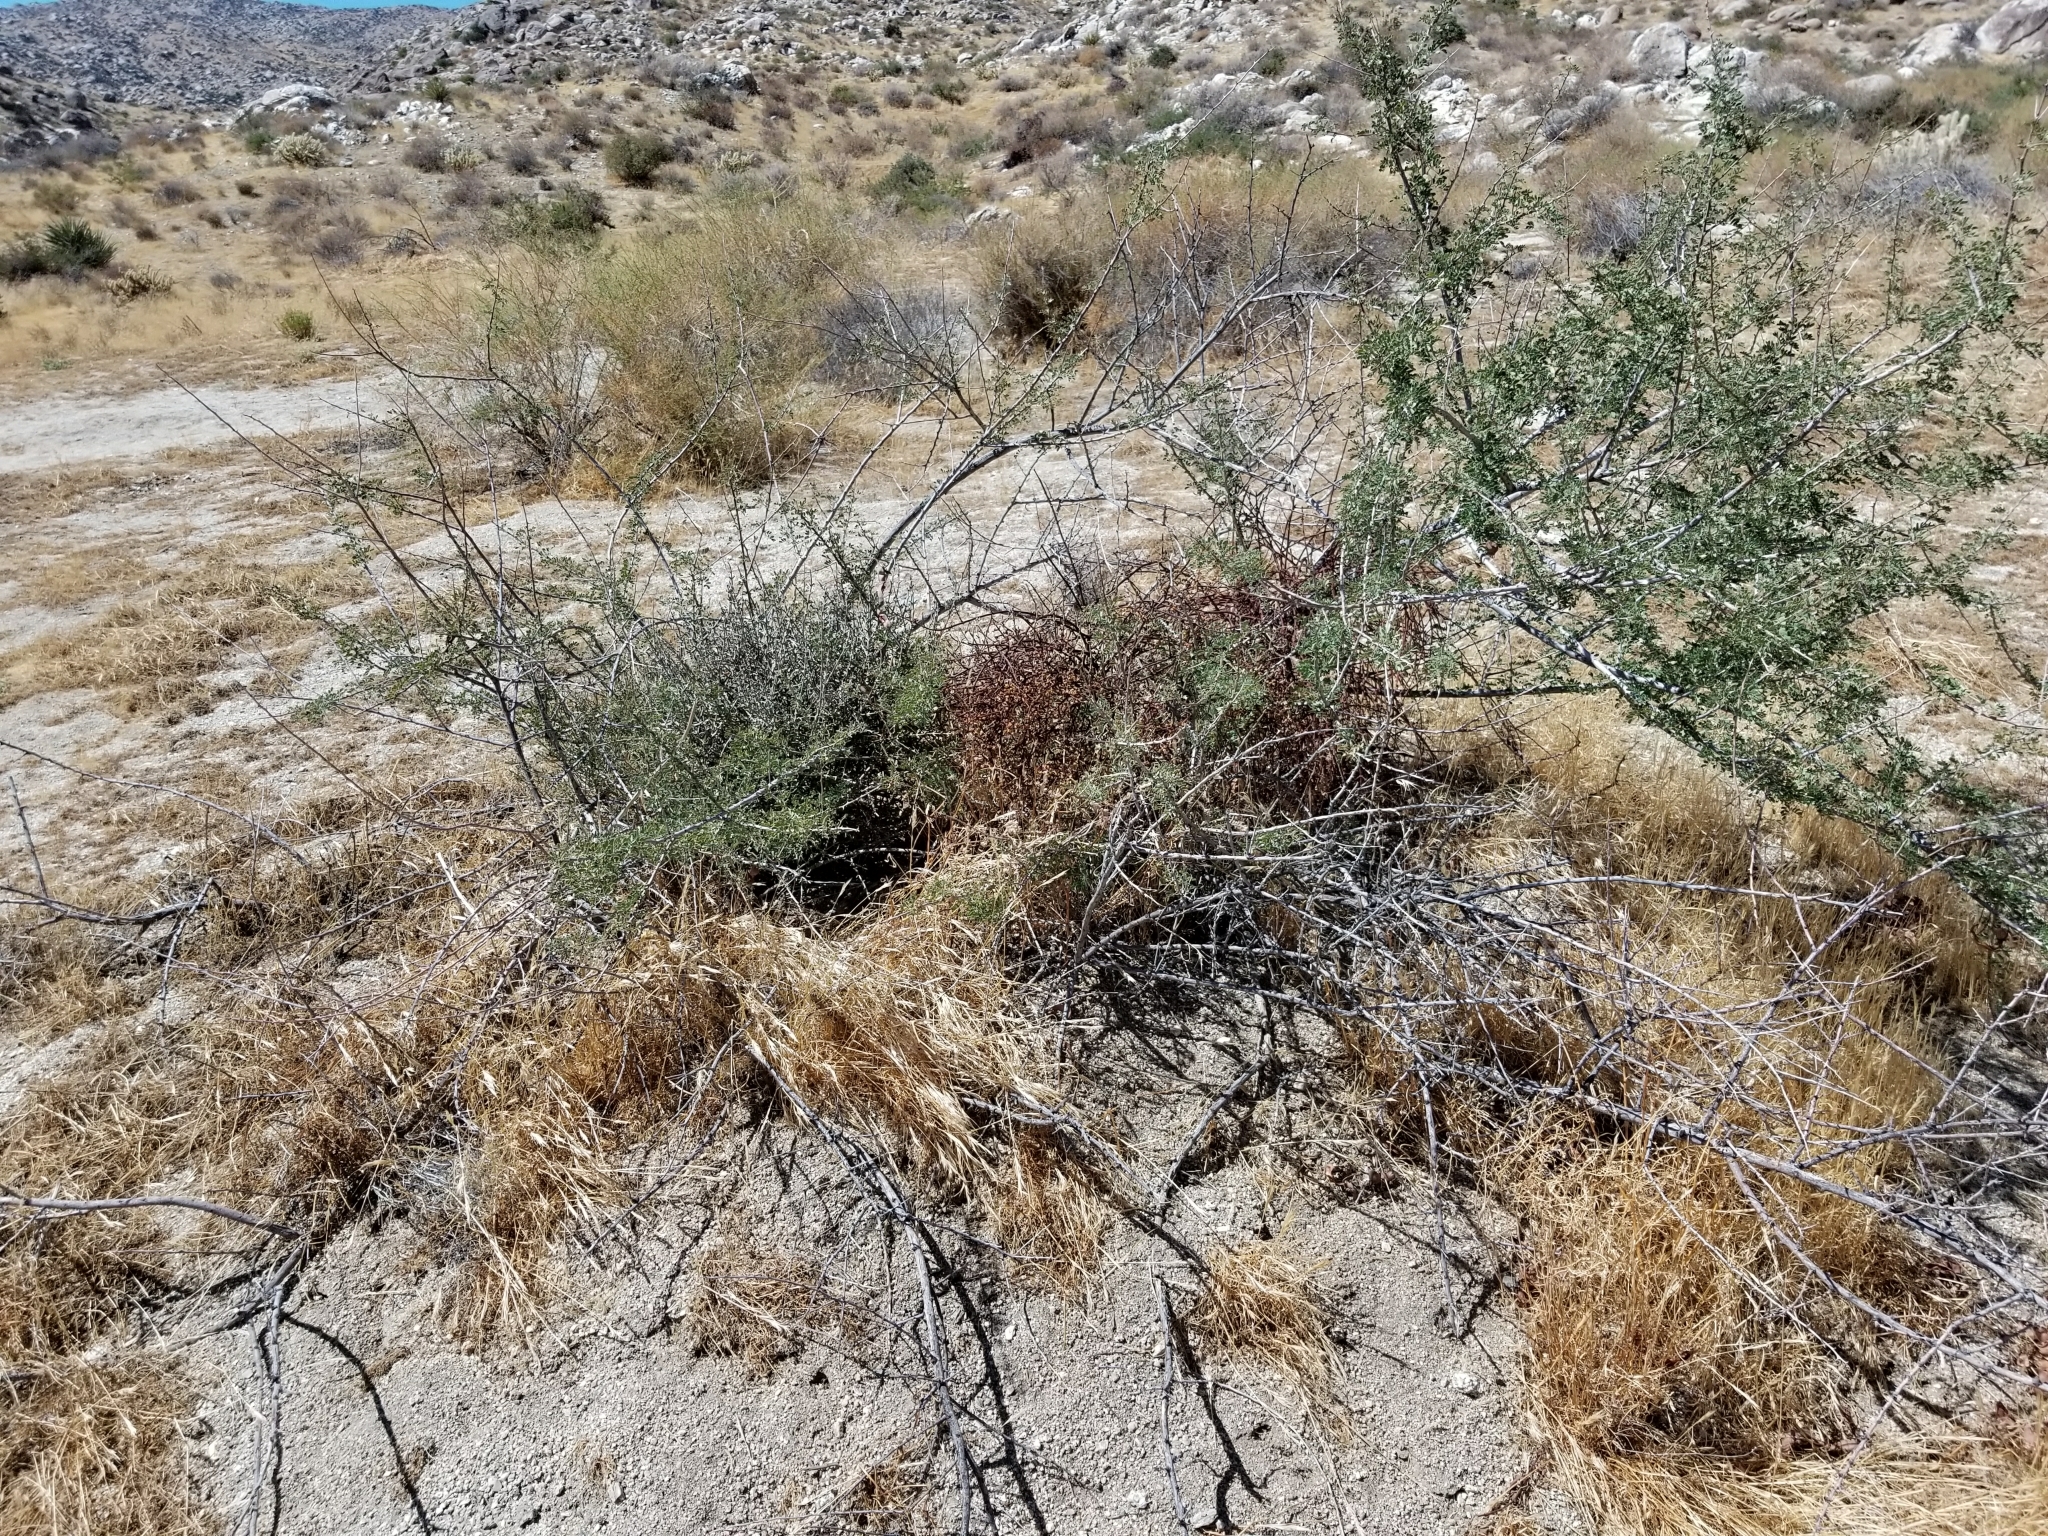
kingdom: Plantae
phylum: Tracheophyta
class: Magnoliopsida
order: Fabales
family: Fabaceae
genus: Senegalia
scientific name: Senegalia greggii
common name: Texas-mimosa
